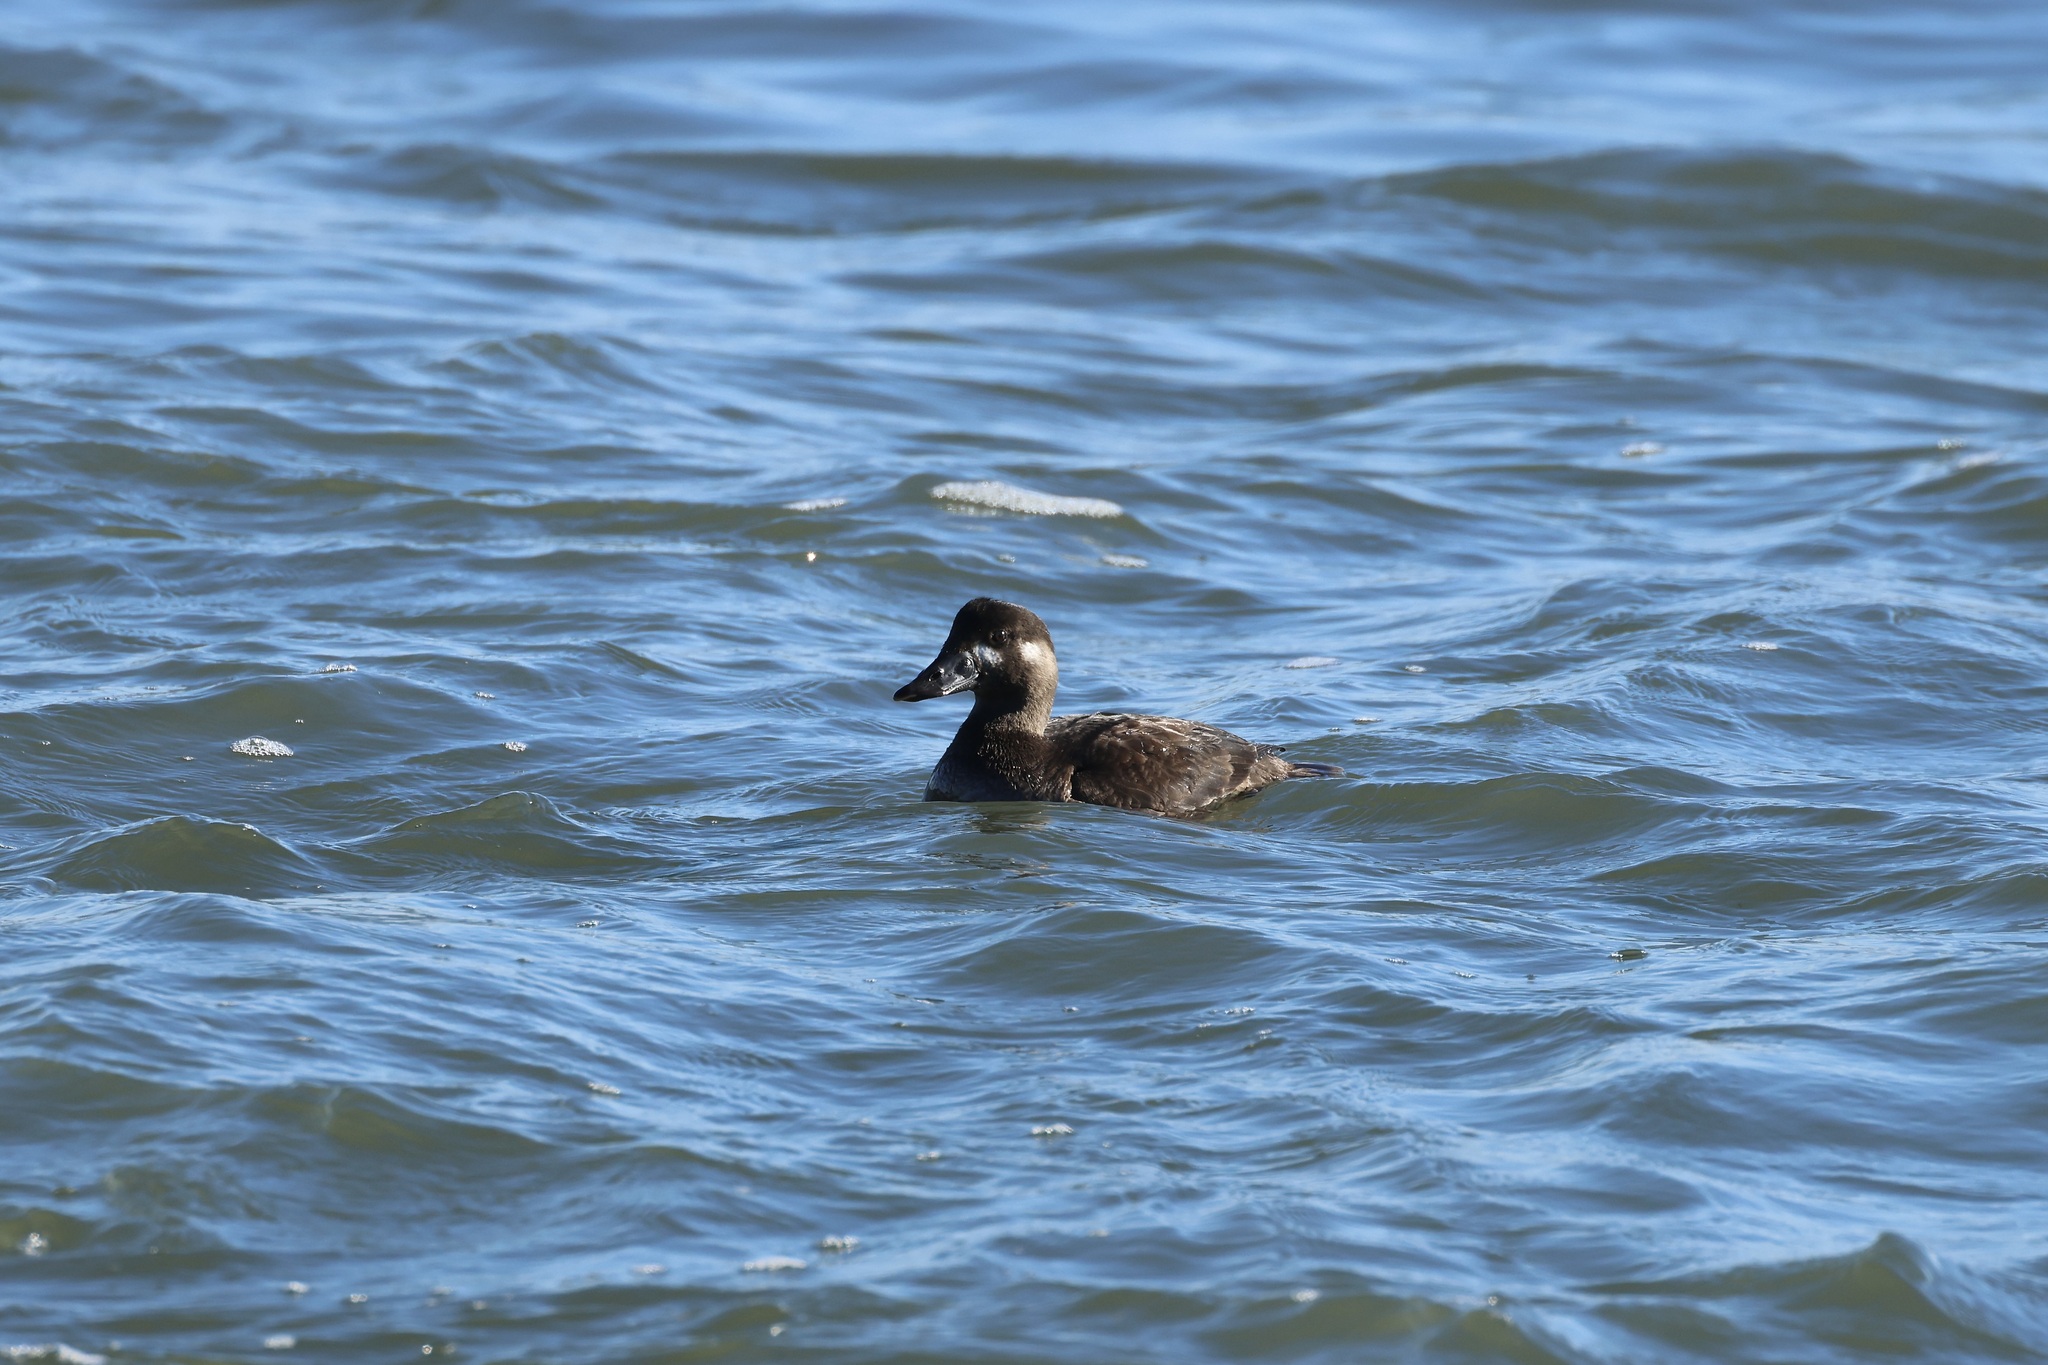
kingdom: Animalia
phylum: Chordata
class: Aves
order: Anseriformes
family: Anatidae
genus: Melanitta
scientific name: Melanitta perspicillata
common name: Surf scoter
